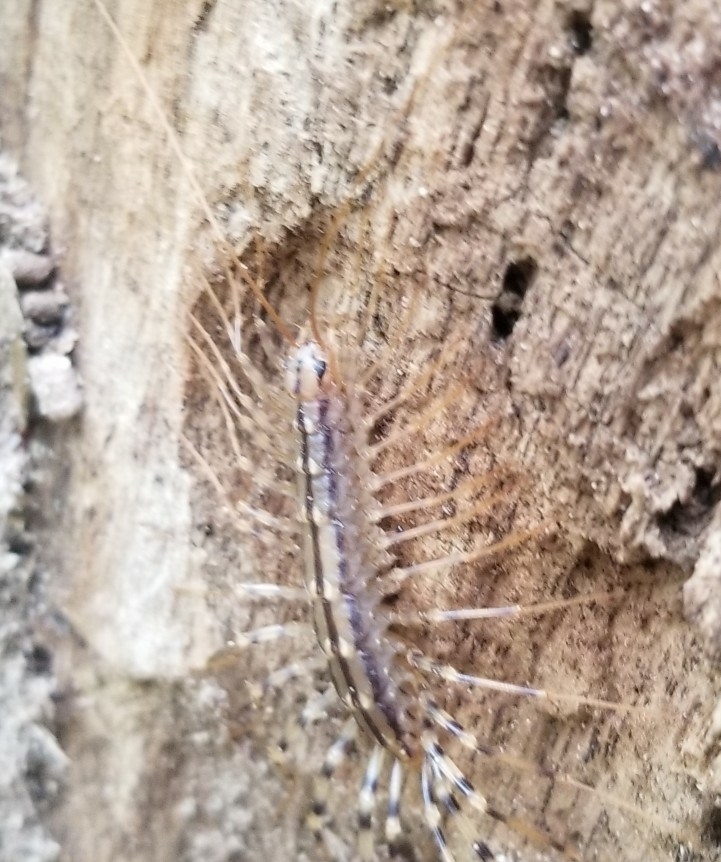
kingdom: Animalia
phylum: Arthropoda
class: Chilopoda
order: Scutigeromorpha
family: Scutigeridae
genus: Scutigera
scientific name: Scutigera coleoptrata
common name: House centipede
